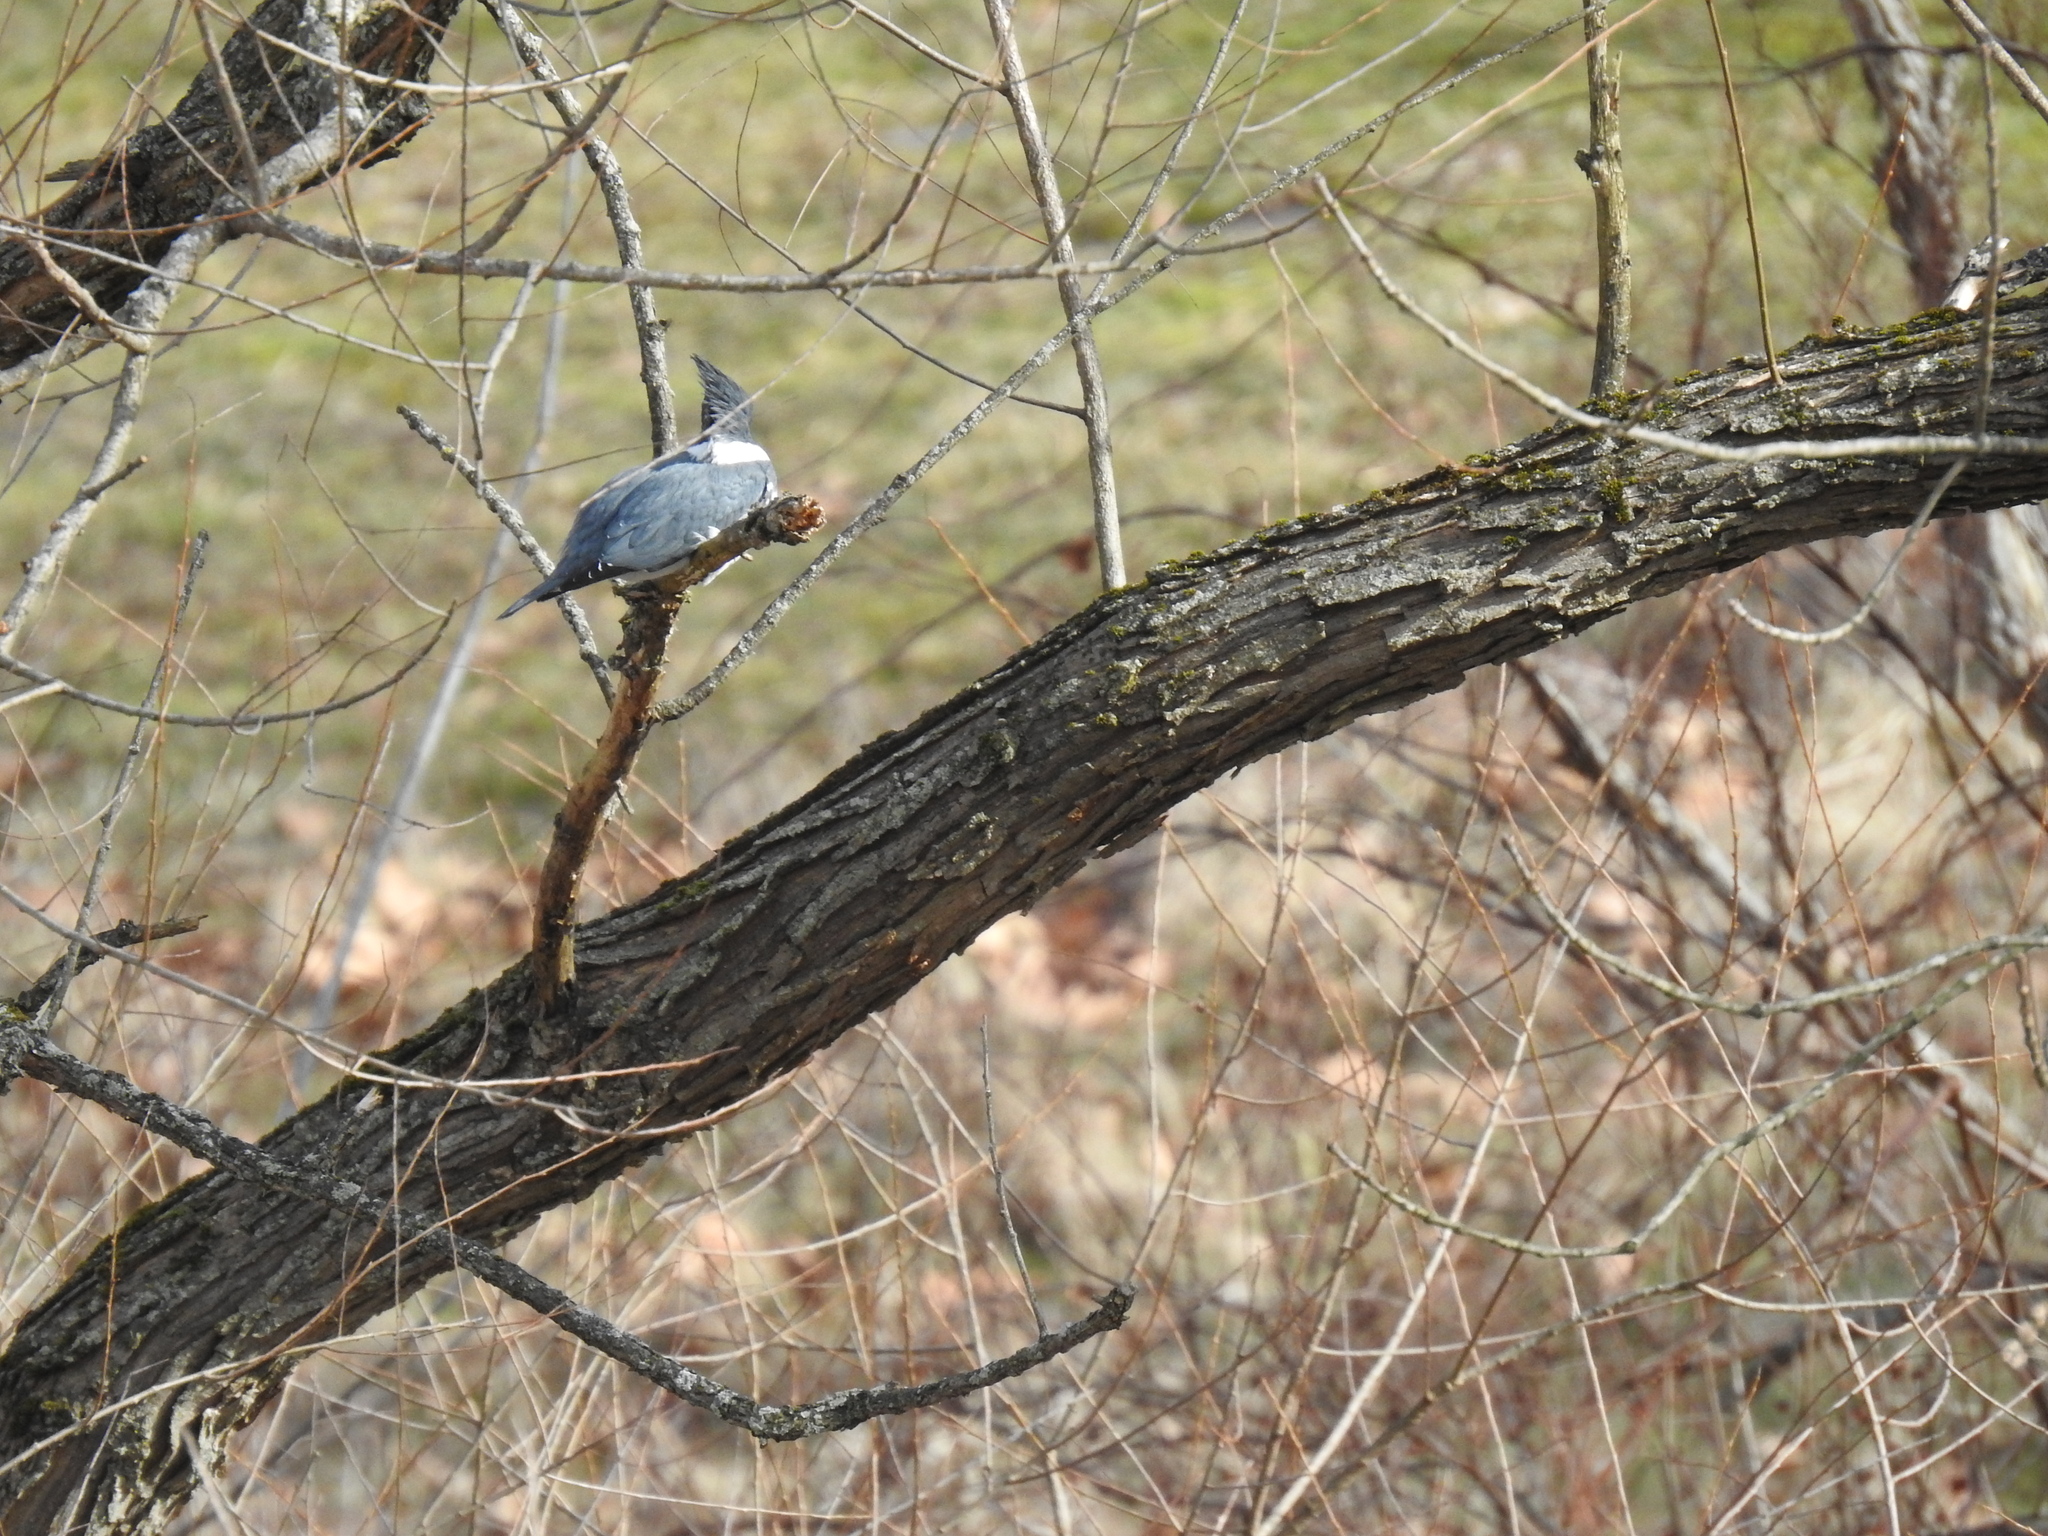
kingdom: Animalia
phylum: Chordata
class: Aves
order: Coraciiformes
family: Alcedinidae
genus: Megaceryle
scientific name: Megaceryle alcyon
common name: Belted kingfisher
